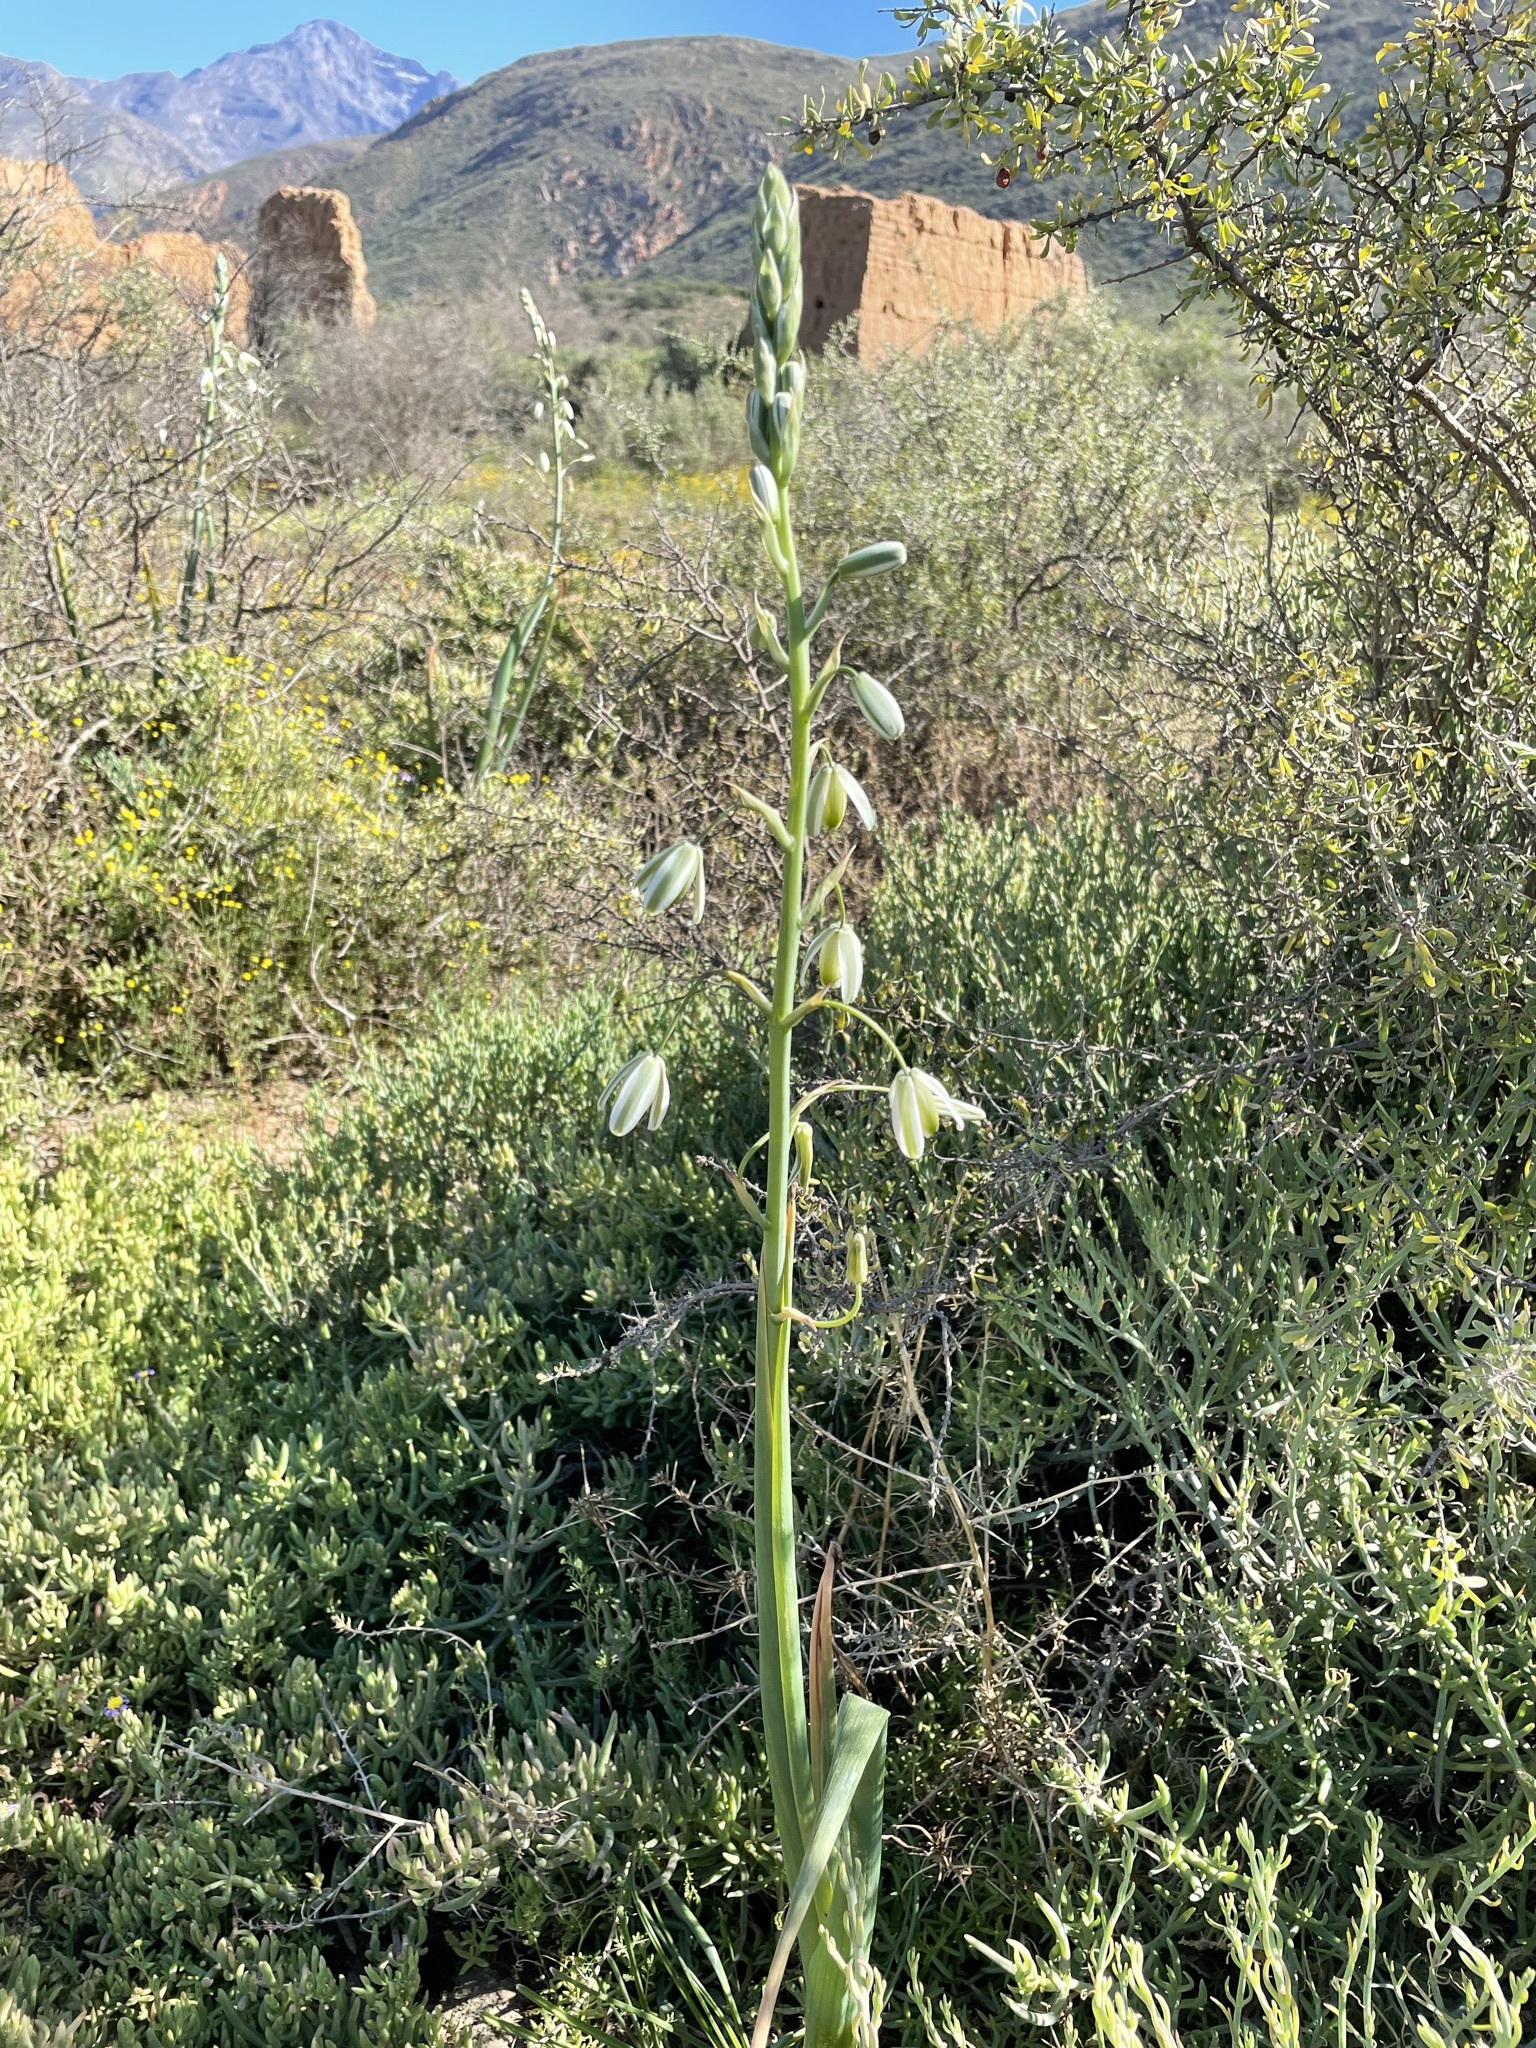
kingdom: Plantae
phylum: Tracheophyta
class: Liliopsida
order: Asparagales
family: Asparagaceae
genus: Albuca
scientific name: Albuca canadensis
